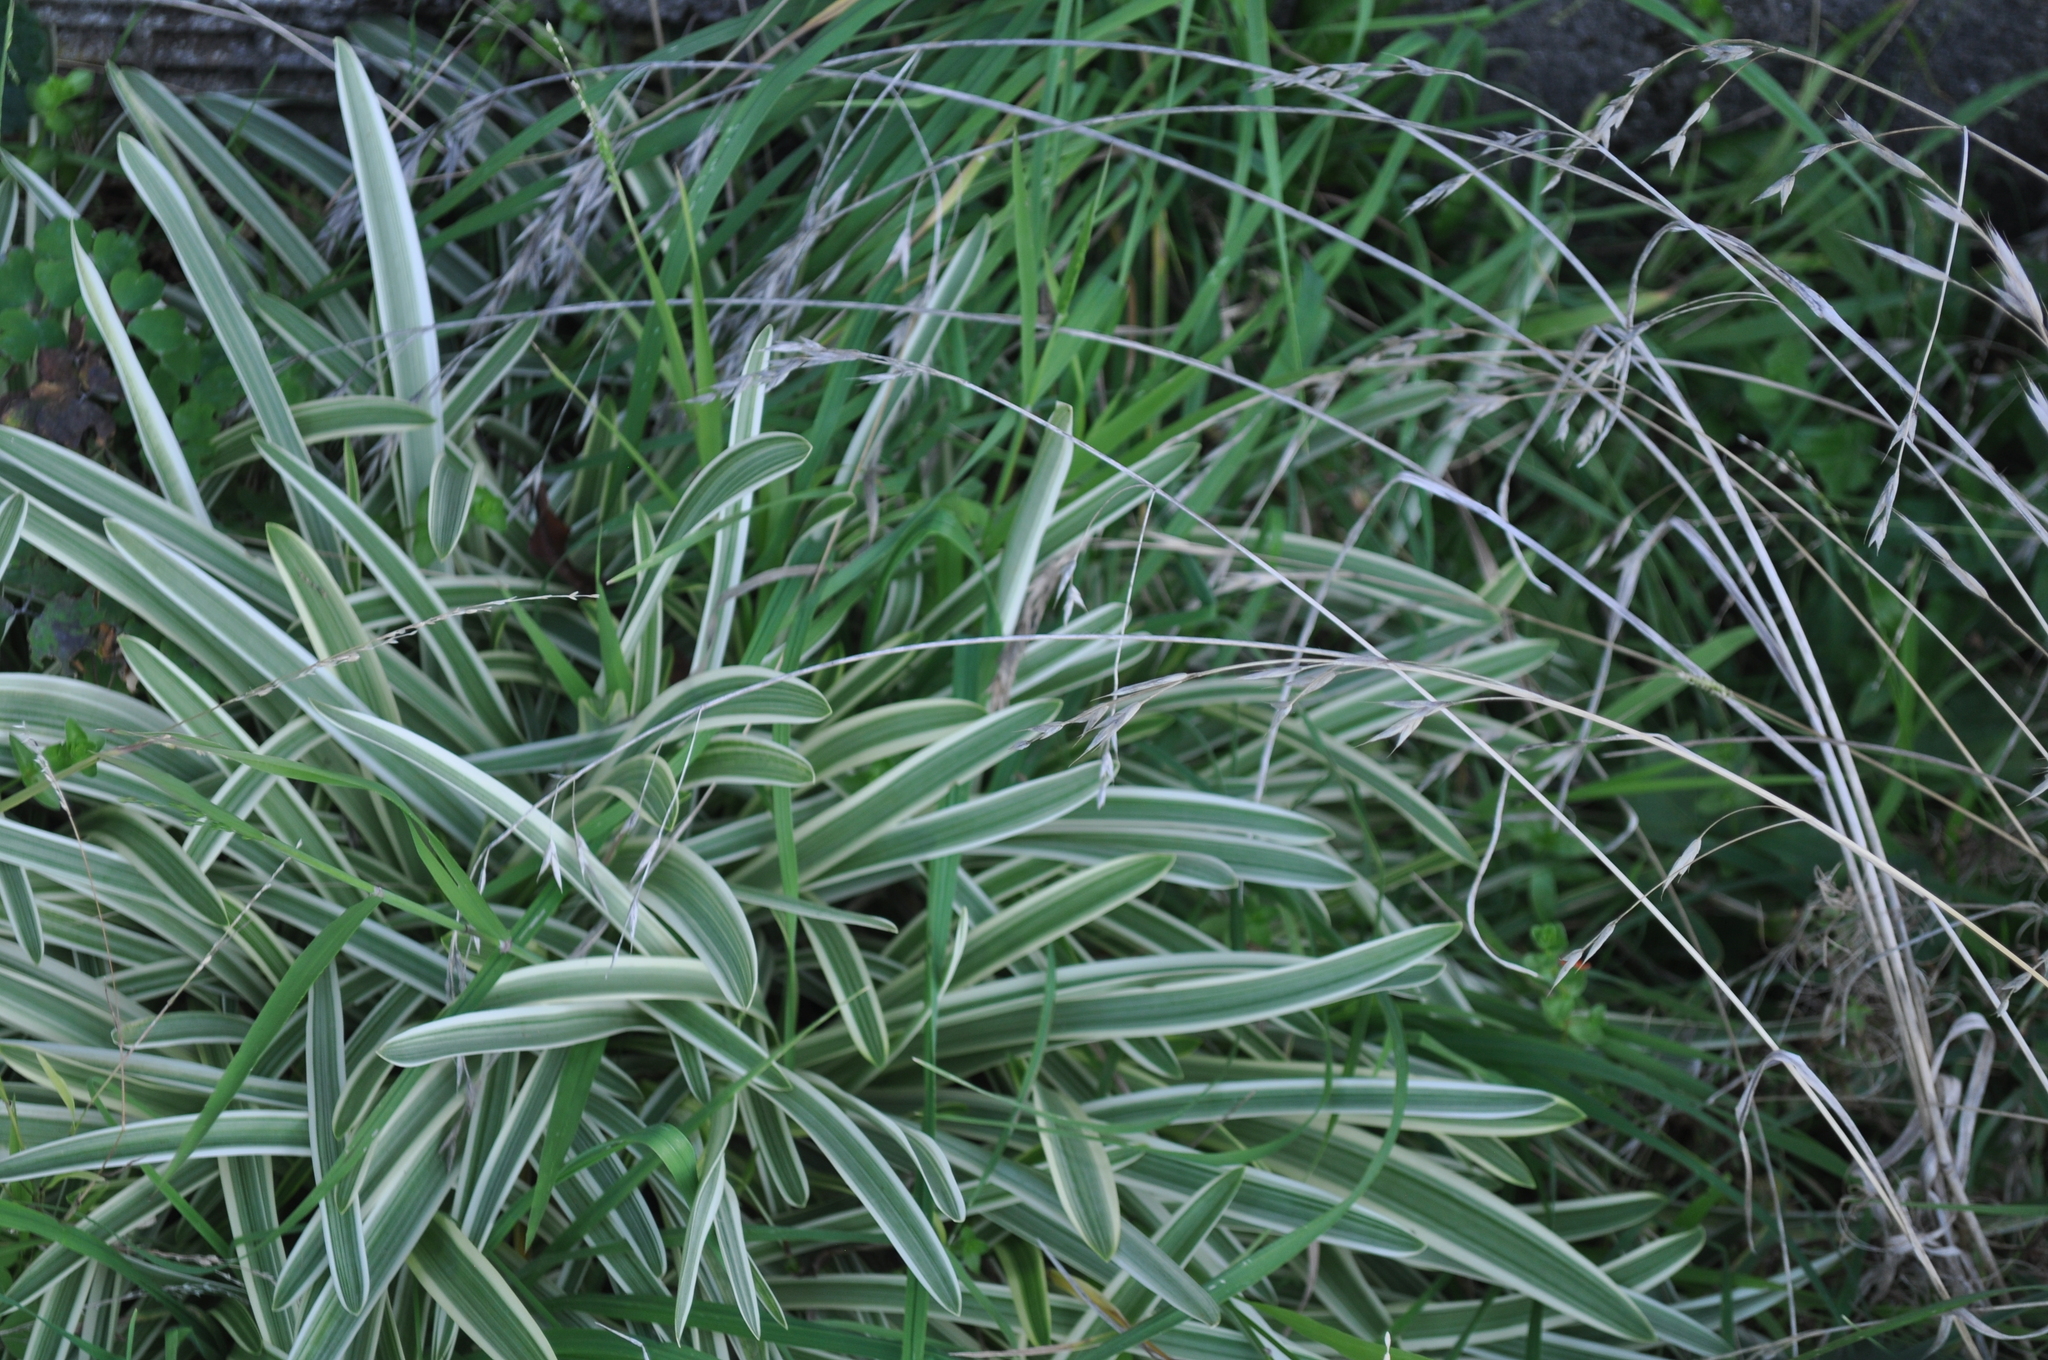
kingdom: Plantae
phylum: Tracheophyta
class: Liliopsida
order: Asparagales
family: Asparagaceae
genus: Chlorophytum
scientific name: Chlorophytum comosum
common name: Spider plant
